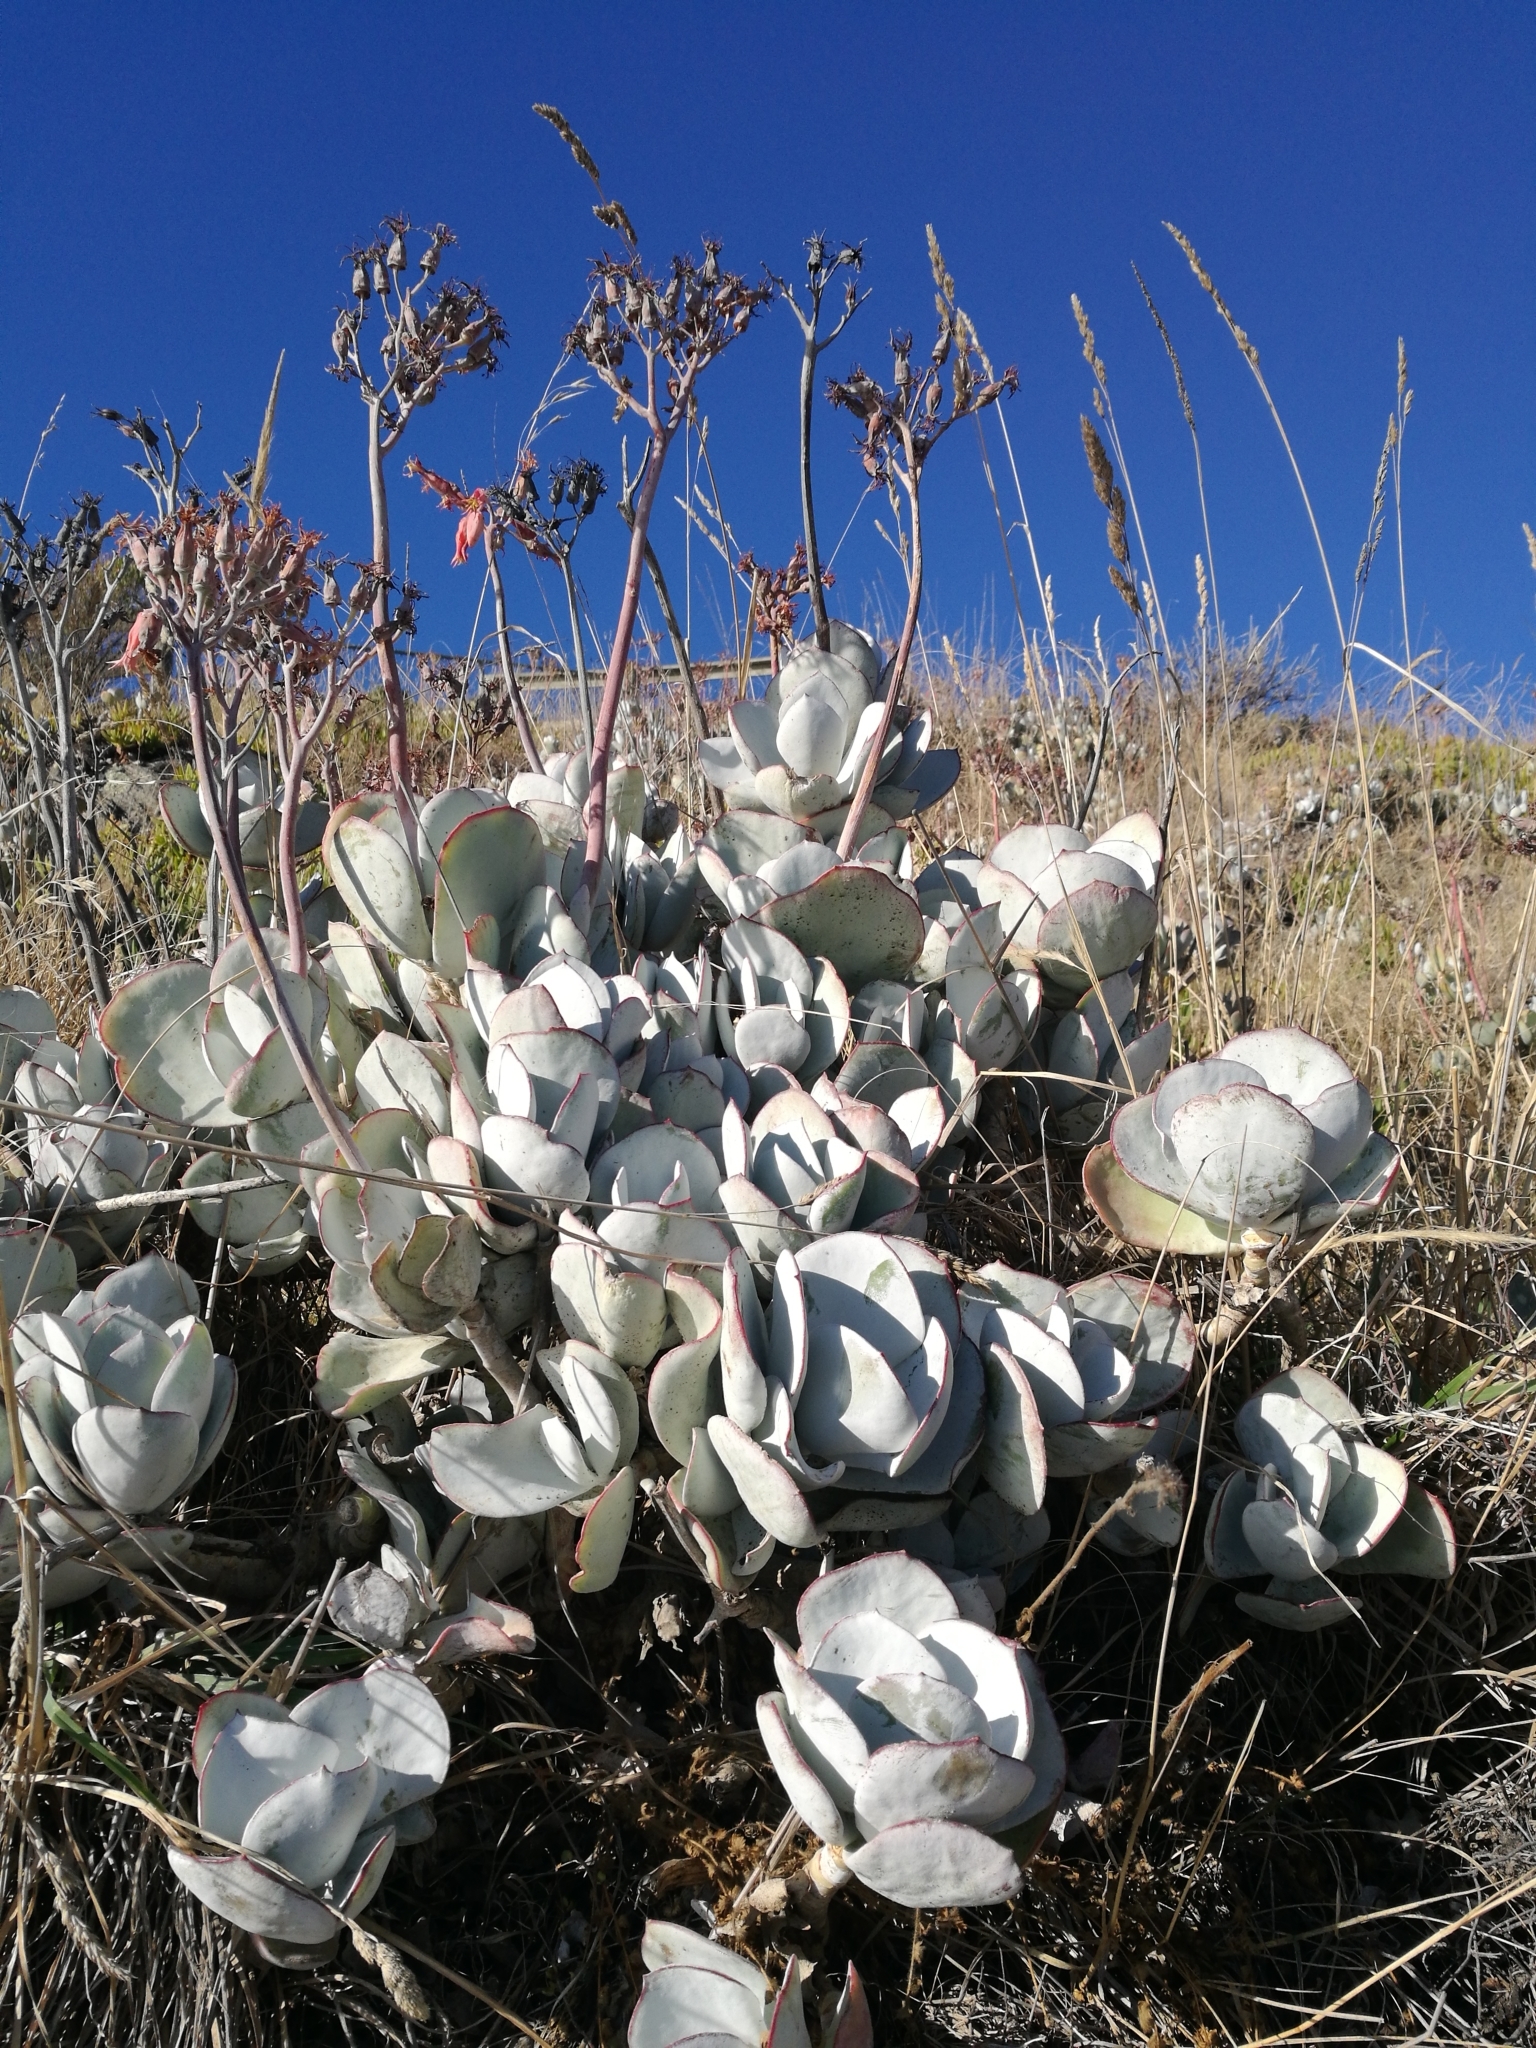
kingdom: Plantae
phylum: Tracheophyta
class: Magnoliopsida
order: Saxifragales
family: Crassulaceae
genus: Cotyledon
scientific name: Cotyledon orbiculata
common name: Pig's ear
